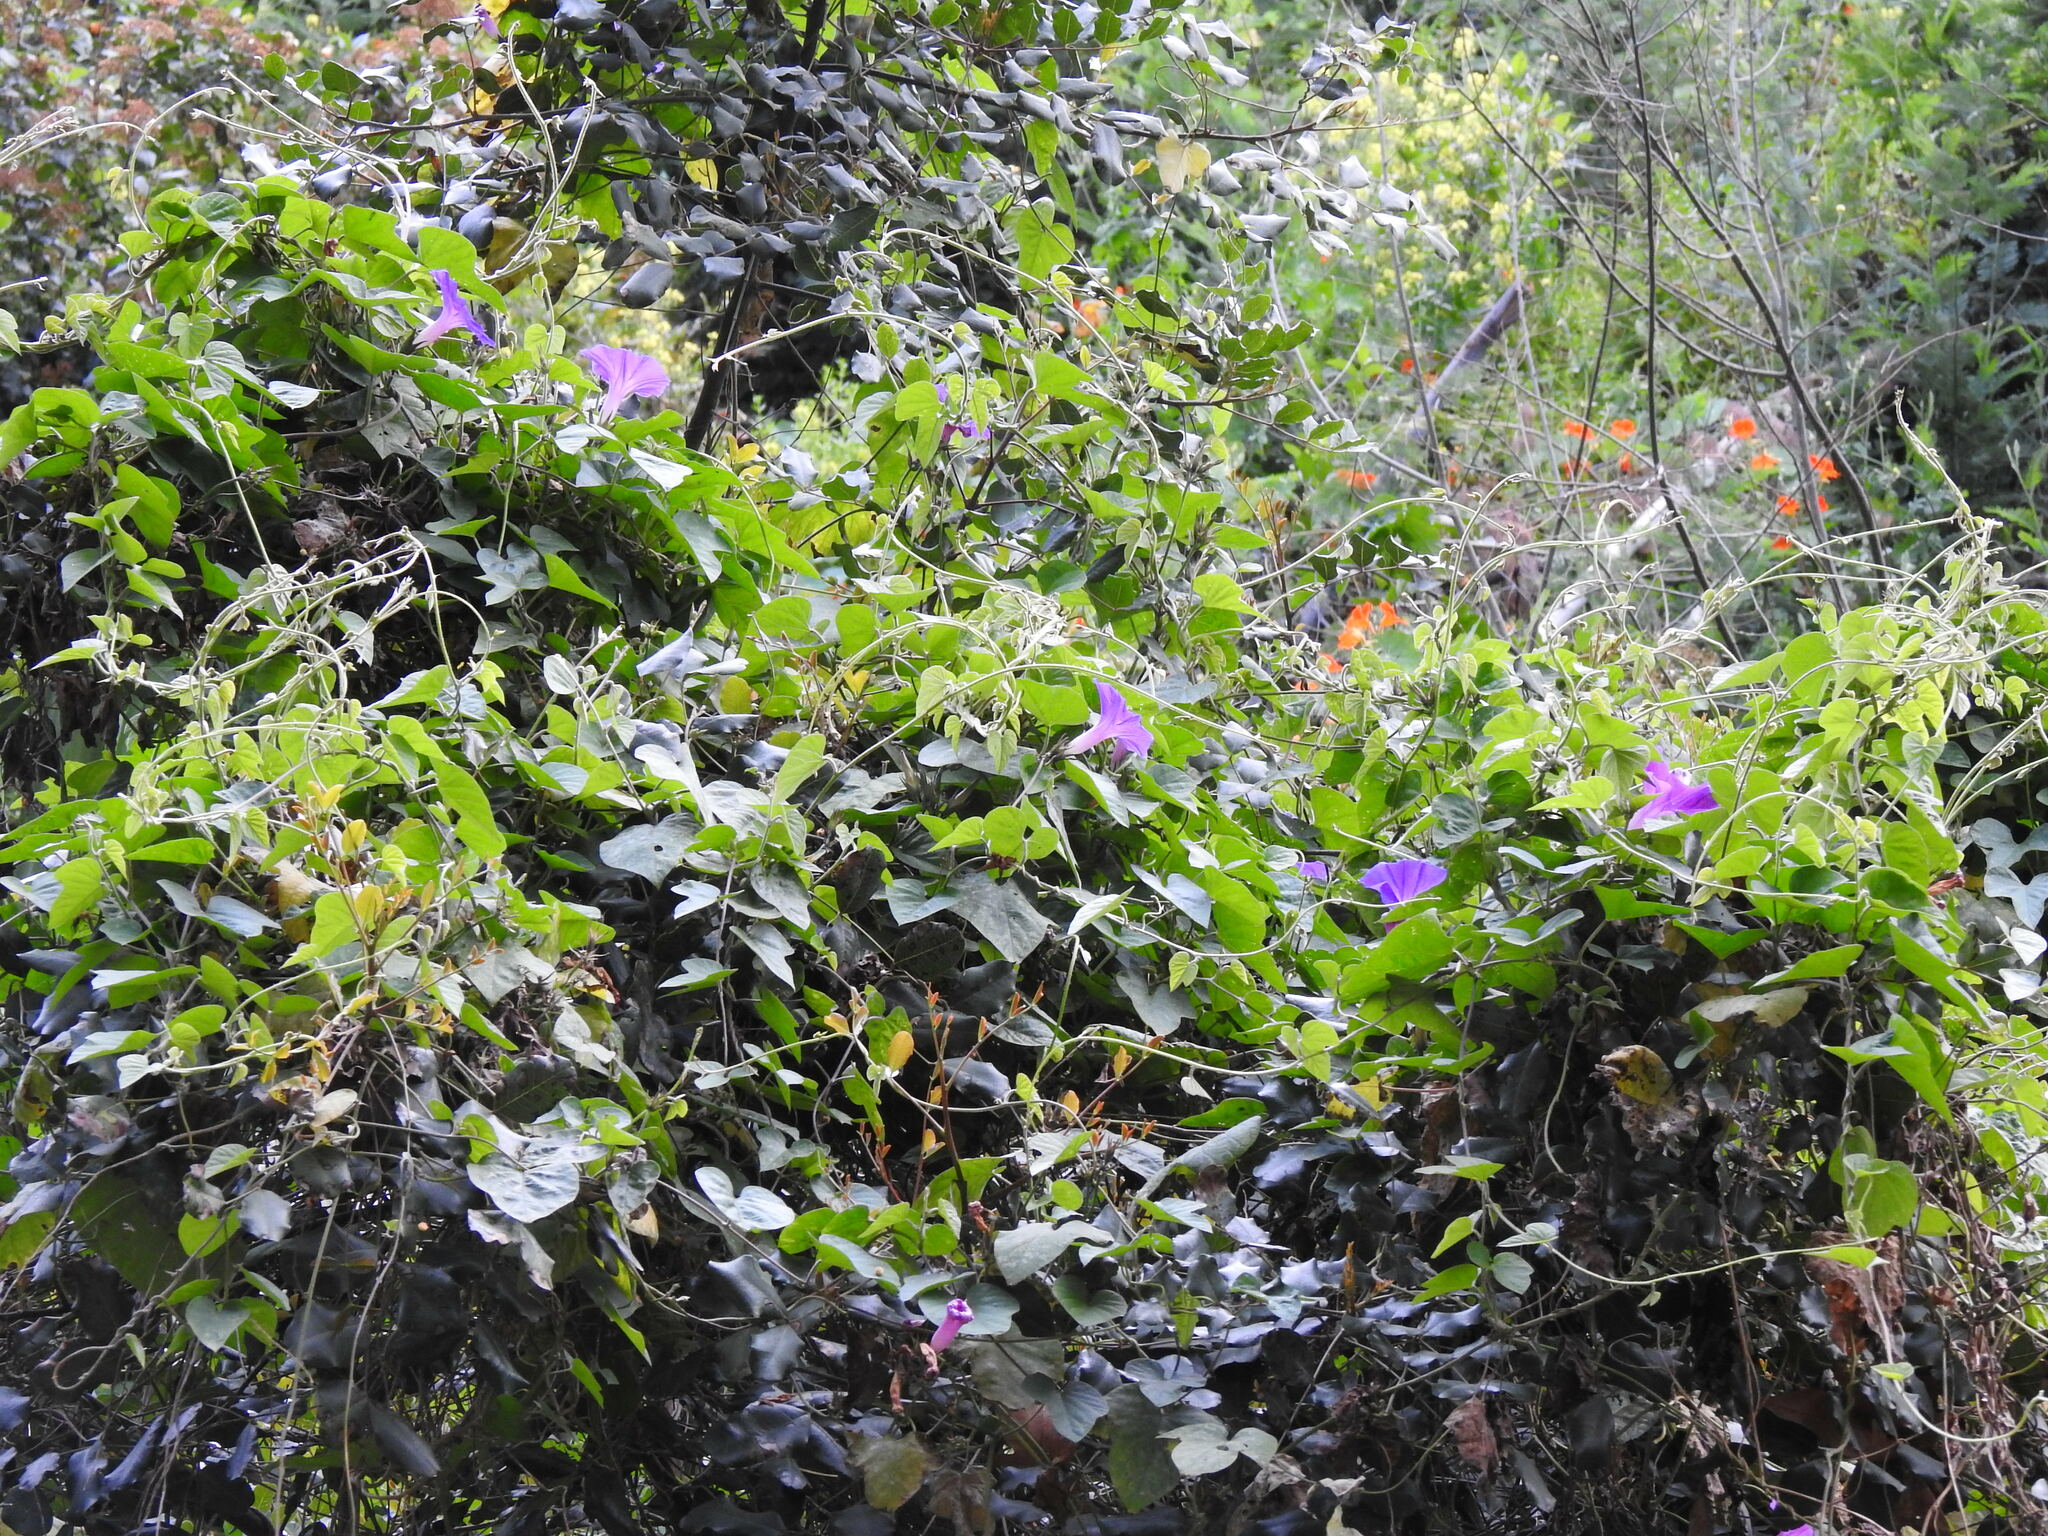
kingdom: Plantae
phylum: Tracheophyta
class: Magnoliopsida
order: Solanales
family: Convolvulaceae
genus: Ipomoea
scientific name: Ipomoea indica
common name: Blue dawnflower
